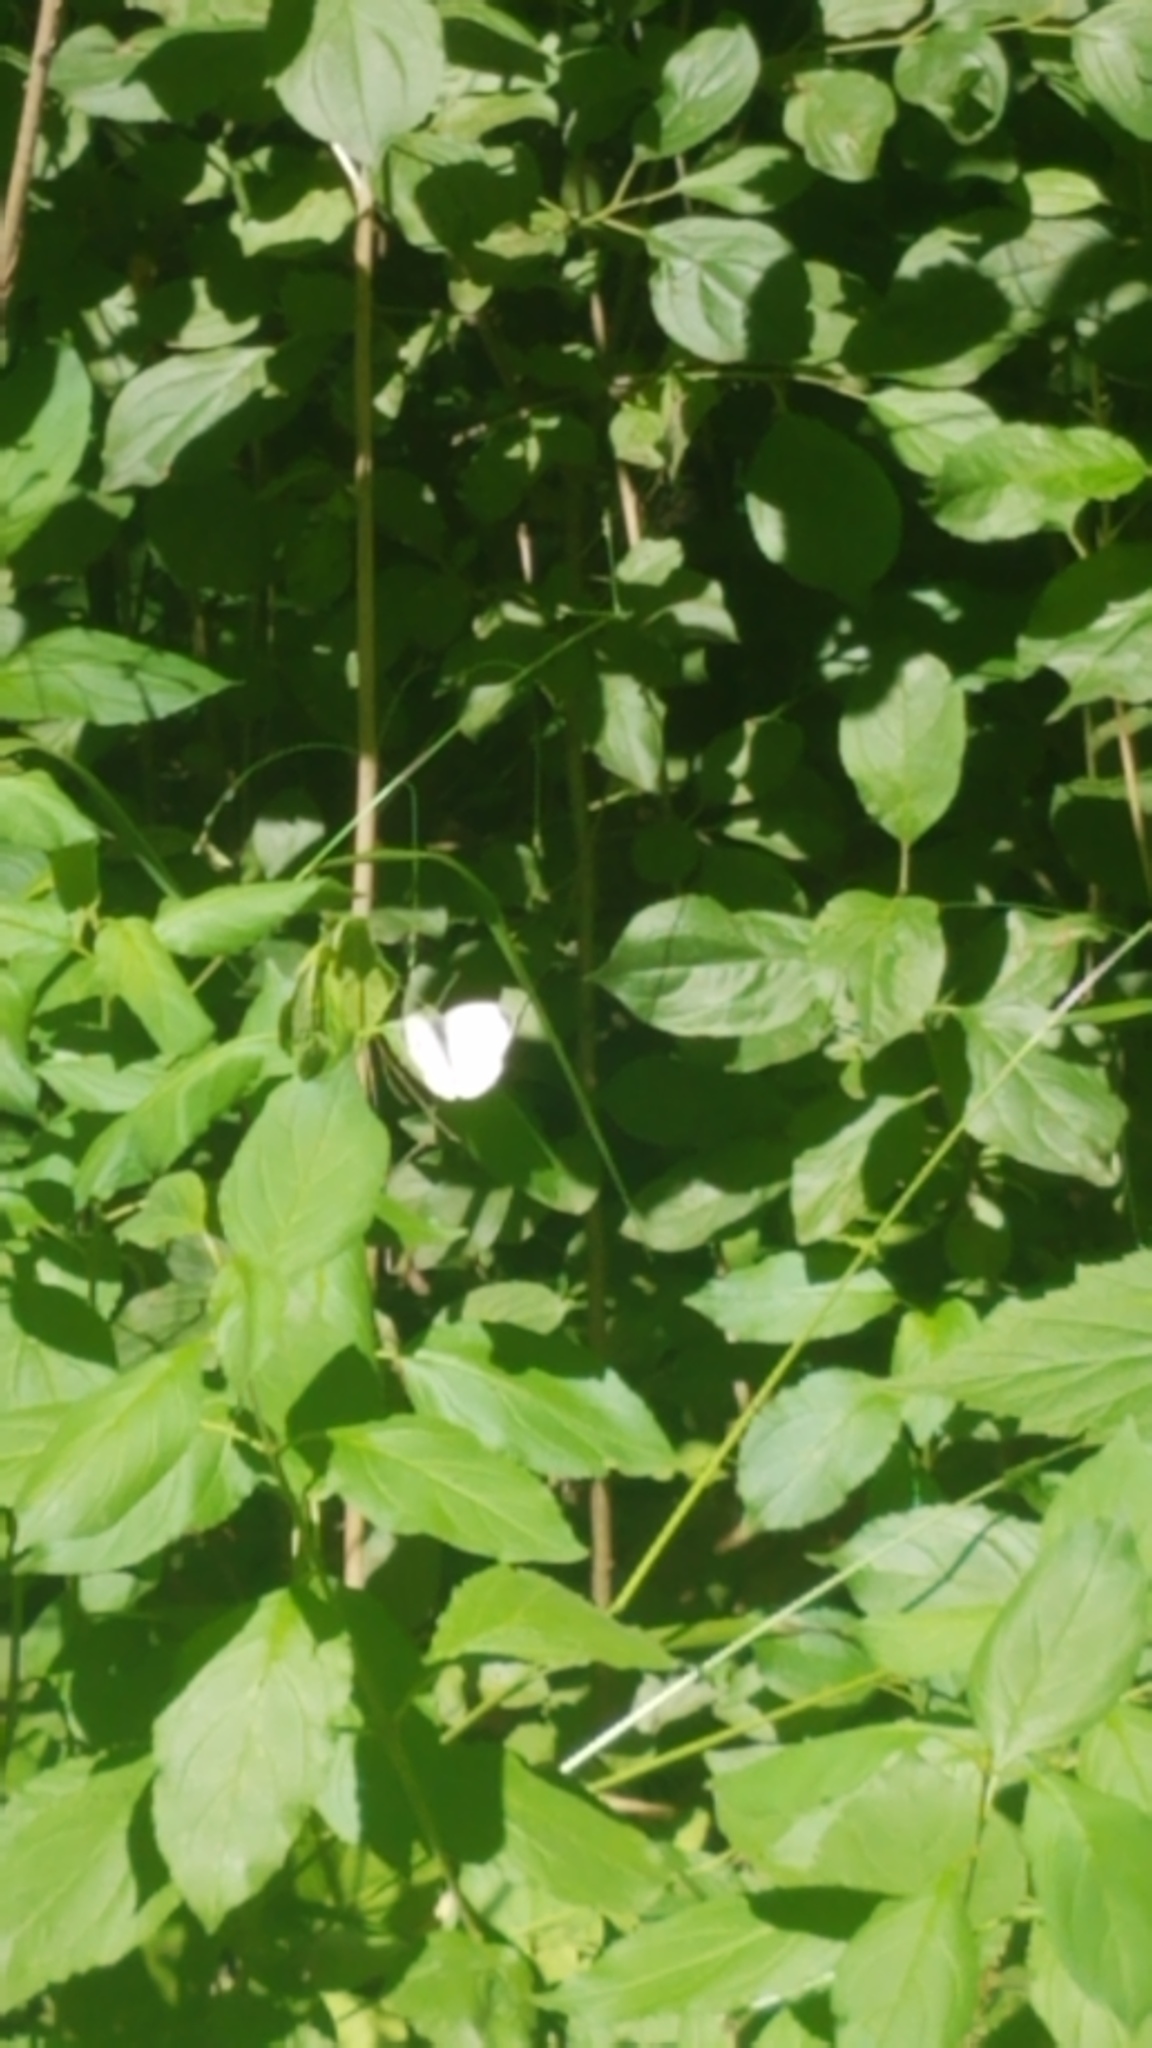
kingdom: Animalia
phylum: Arthropoda
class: Insecta
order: Lepidoptera
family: Pieridae
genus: Pieris
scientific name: Pieris rapae
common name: Small white
